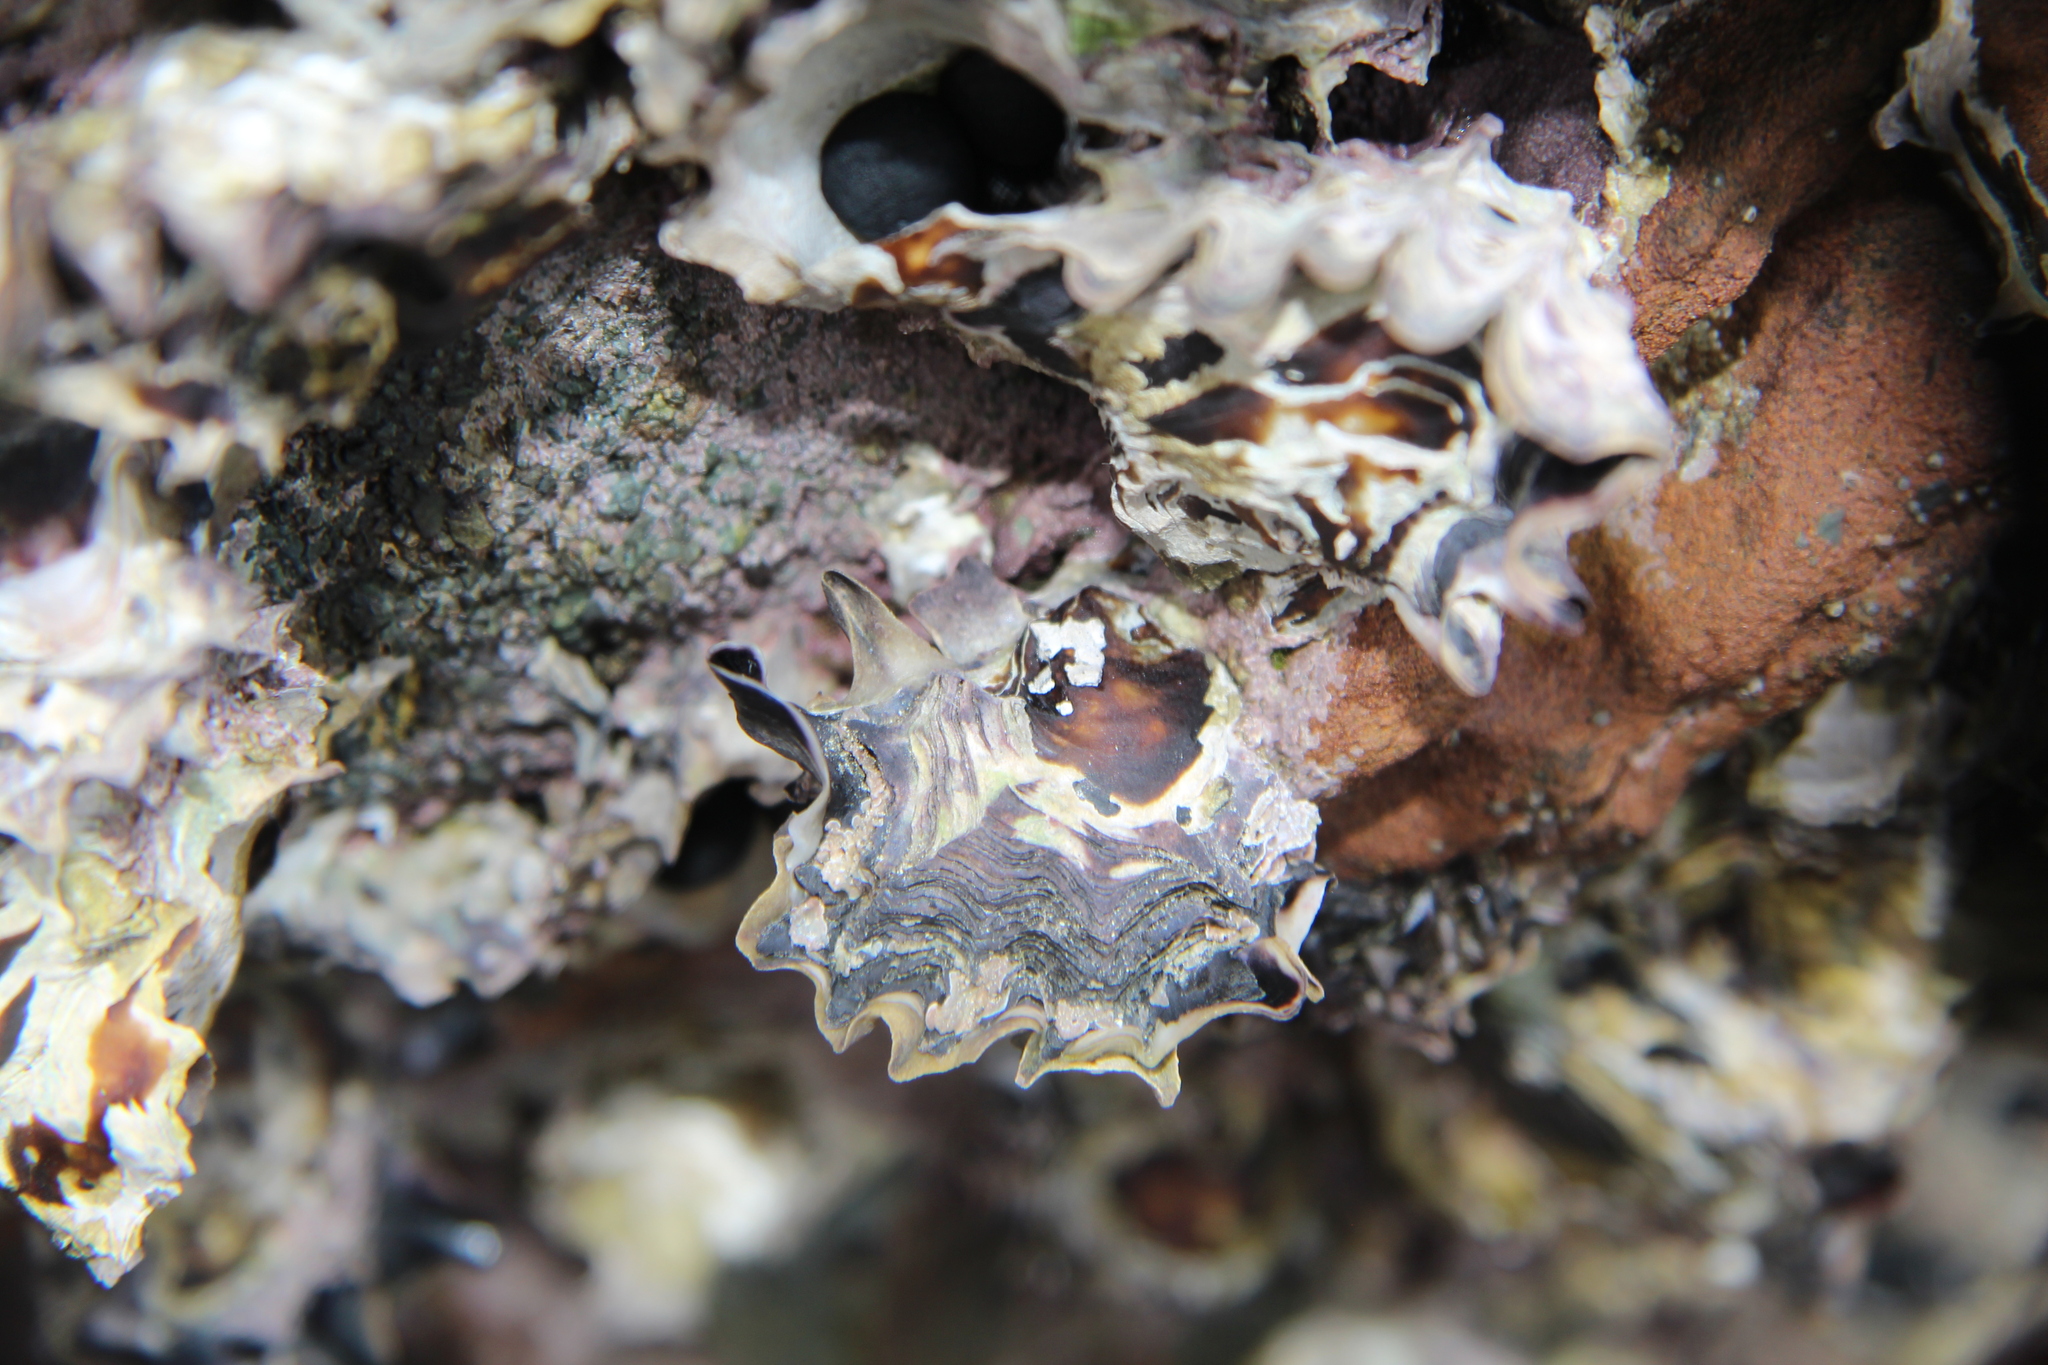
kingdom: Animalia
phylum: Mollusca
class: Bivalvia
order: Ostreida
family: Ostreidae
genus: Saccostrea
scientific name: Saccostrea glomerata
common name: Sydney cupped oyster
